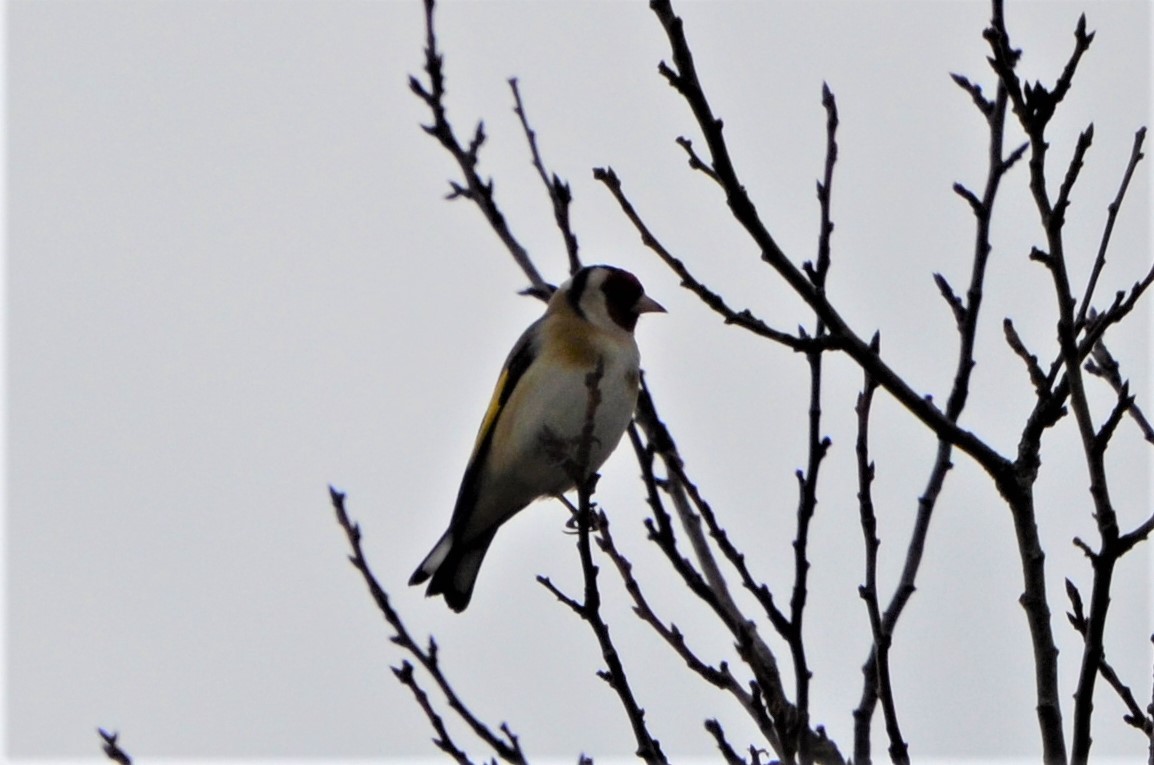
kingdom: Animalia
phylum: Chordata
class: Aves
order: Passeriformes
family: Fringillidae
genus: Carduelis
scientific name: Carduelis carduelis
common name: European goldfinch
